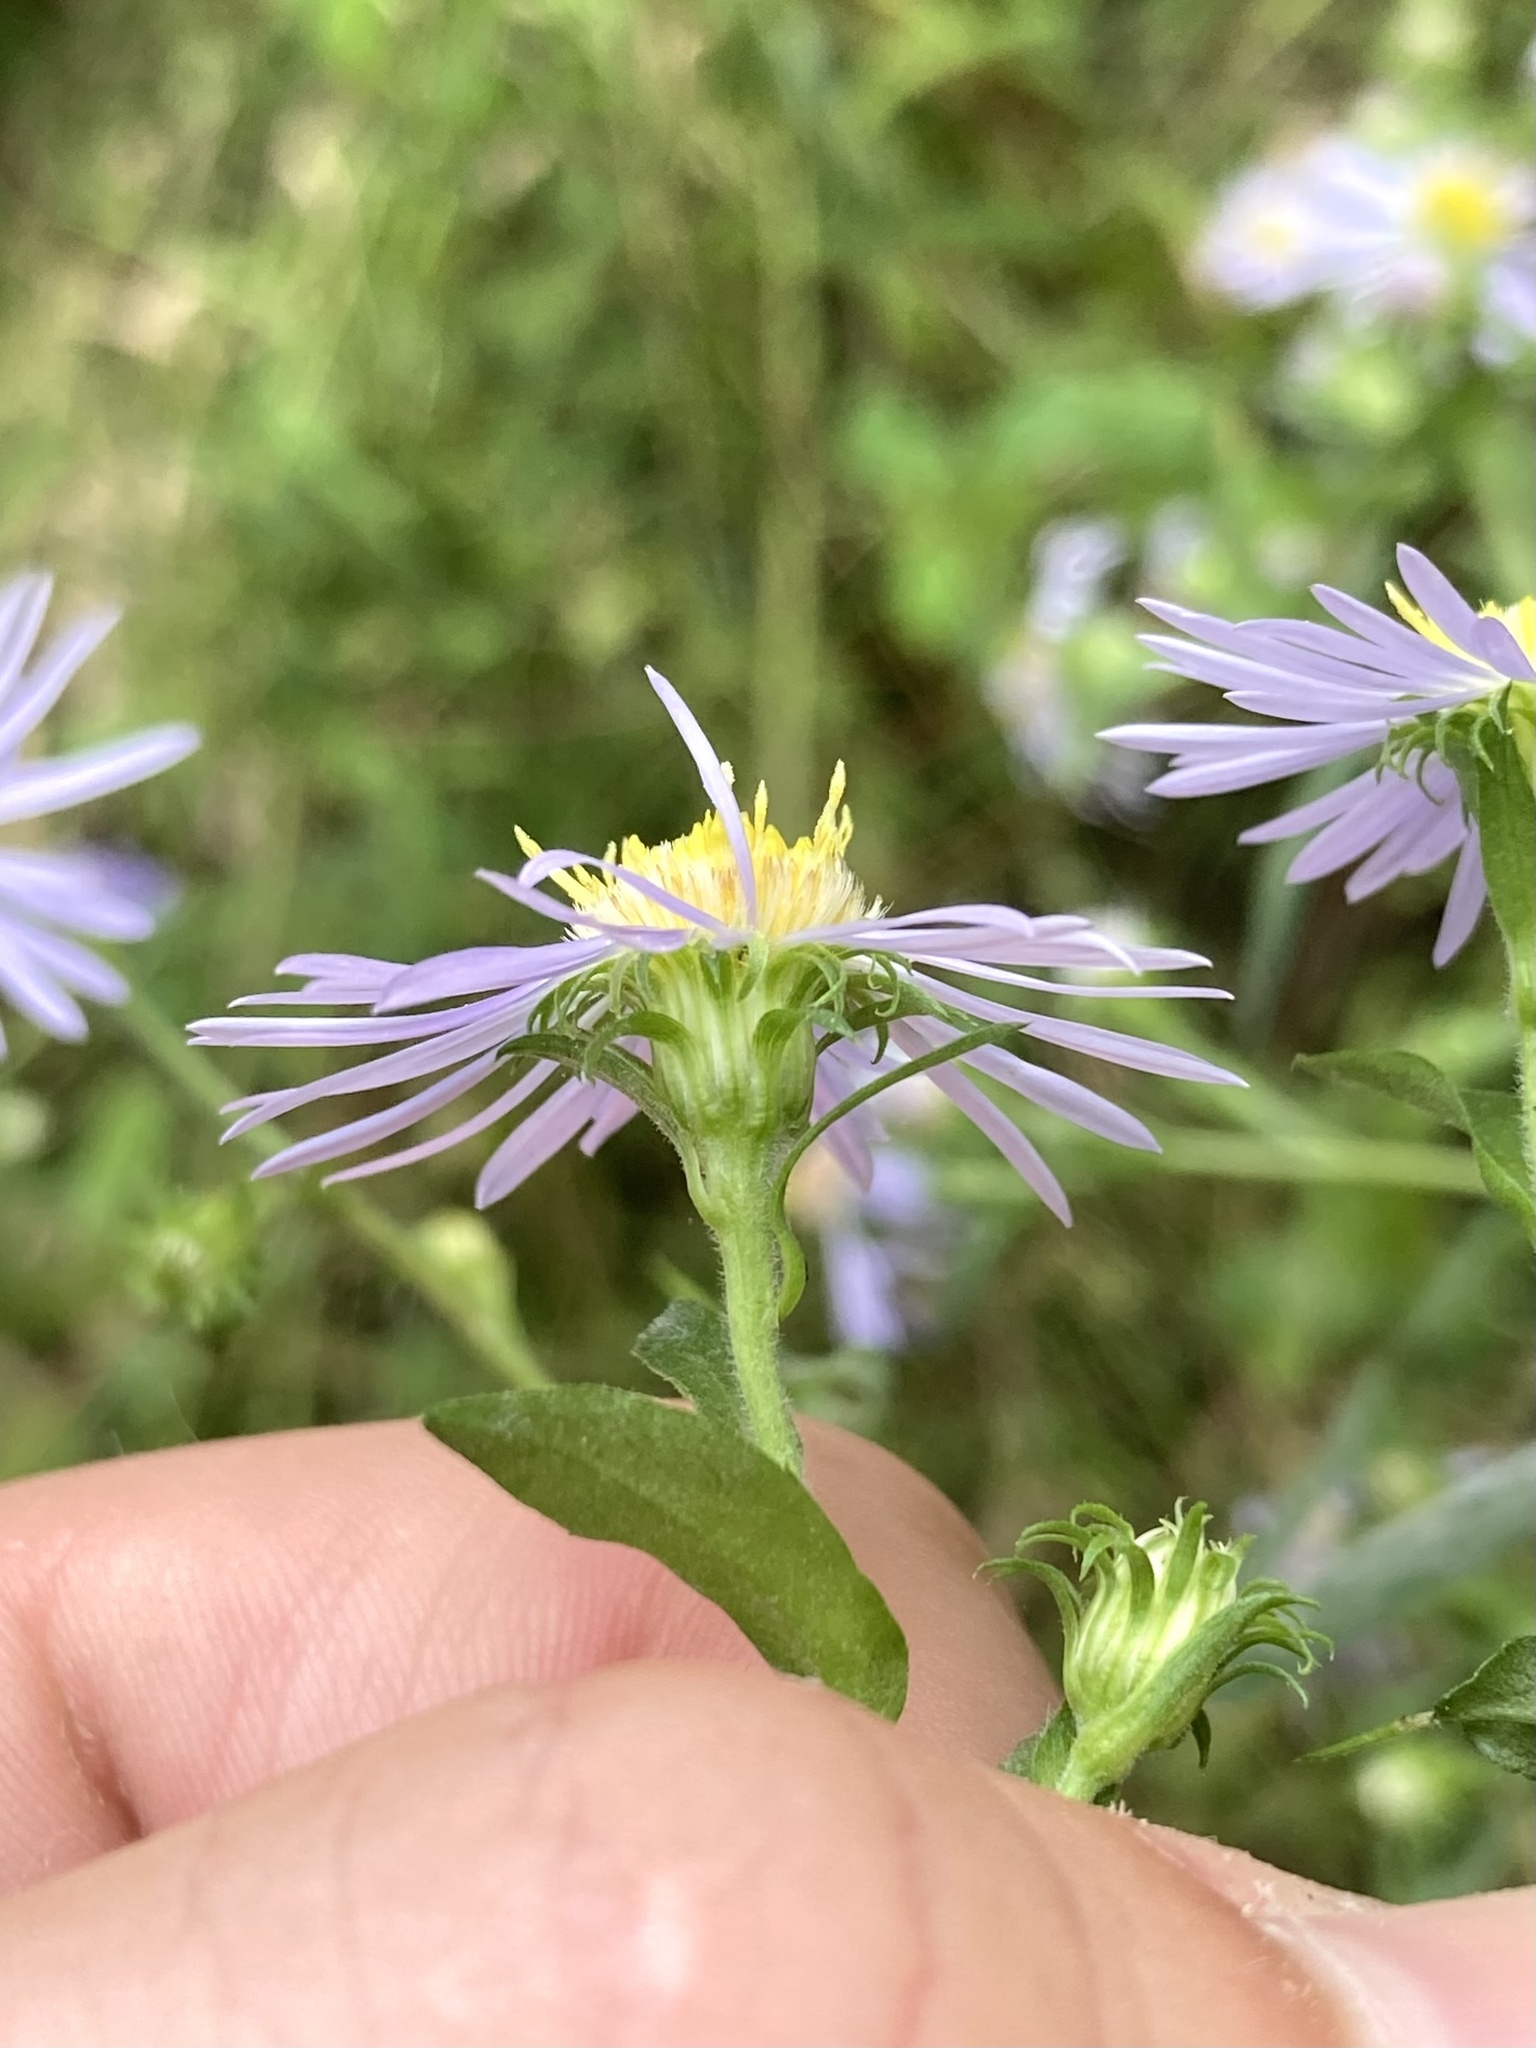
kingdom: Plantae
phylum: Tracheophyta
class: Magnoliopsida
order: Asterales
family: Asteraceae
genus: Symphyotrichum
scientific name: Symphyotrichum puniceum
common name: Bog aster
